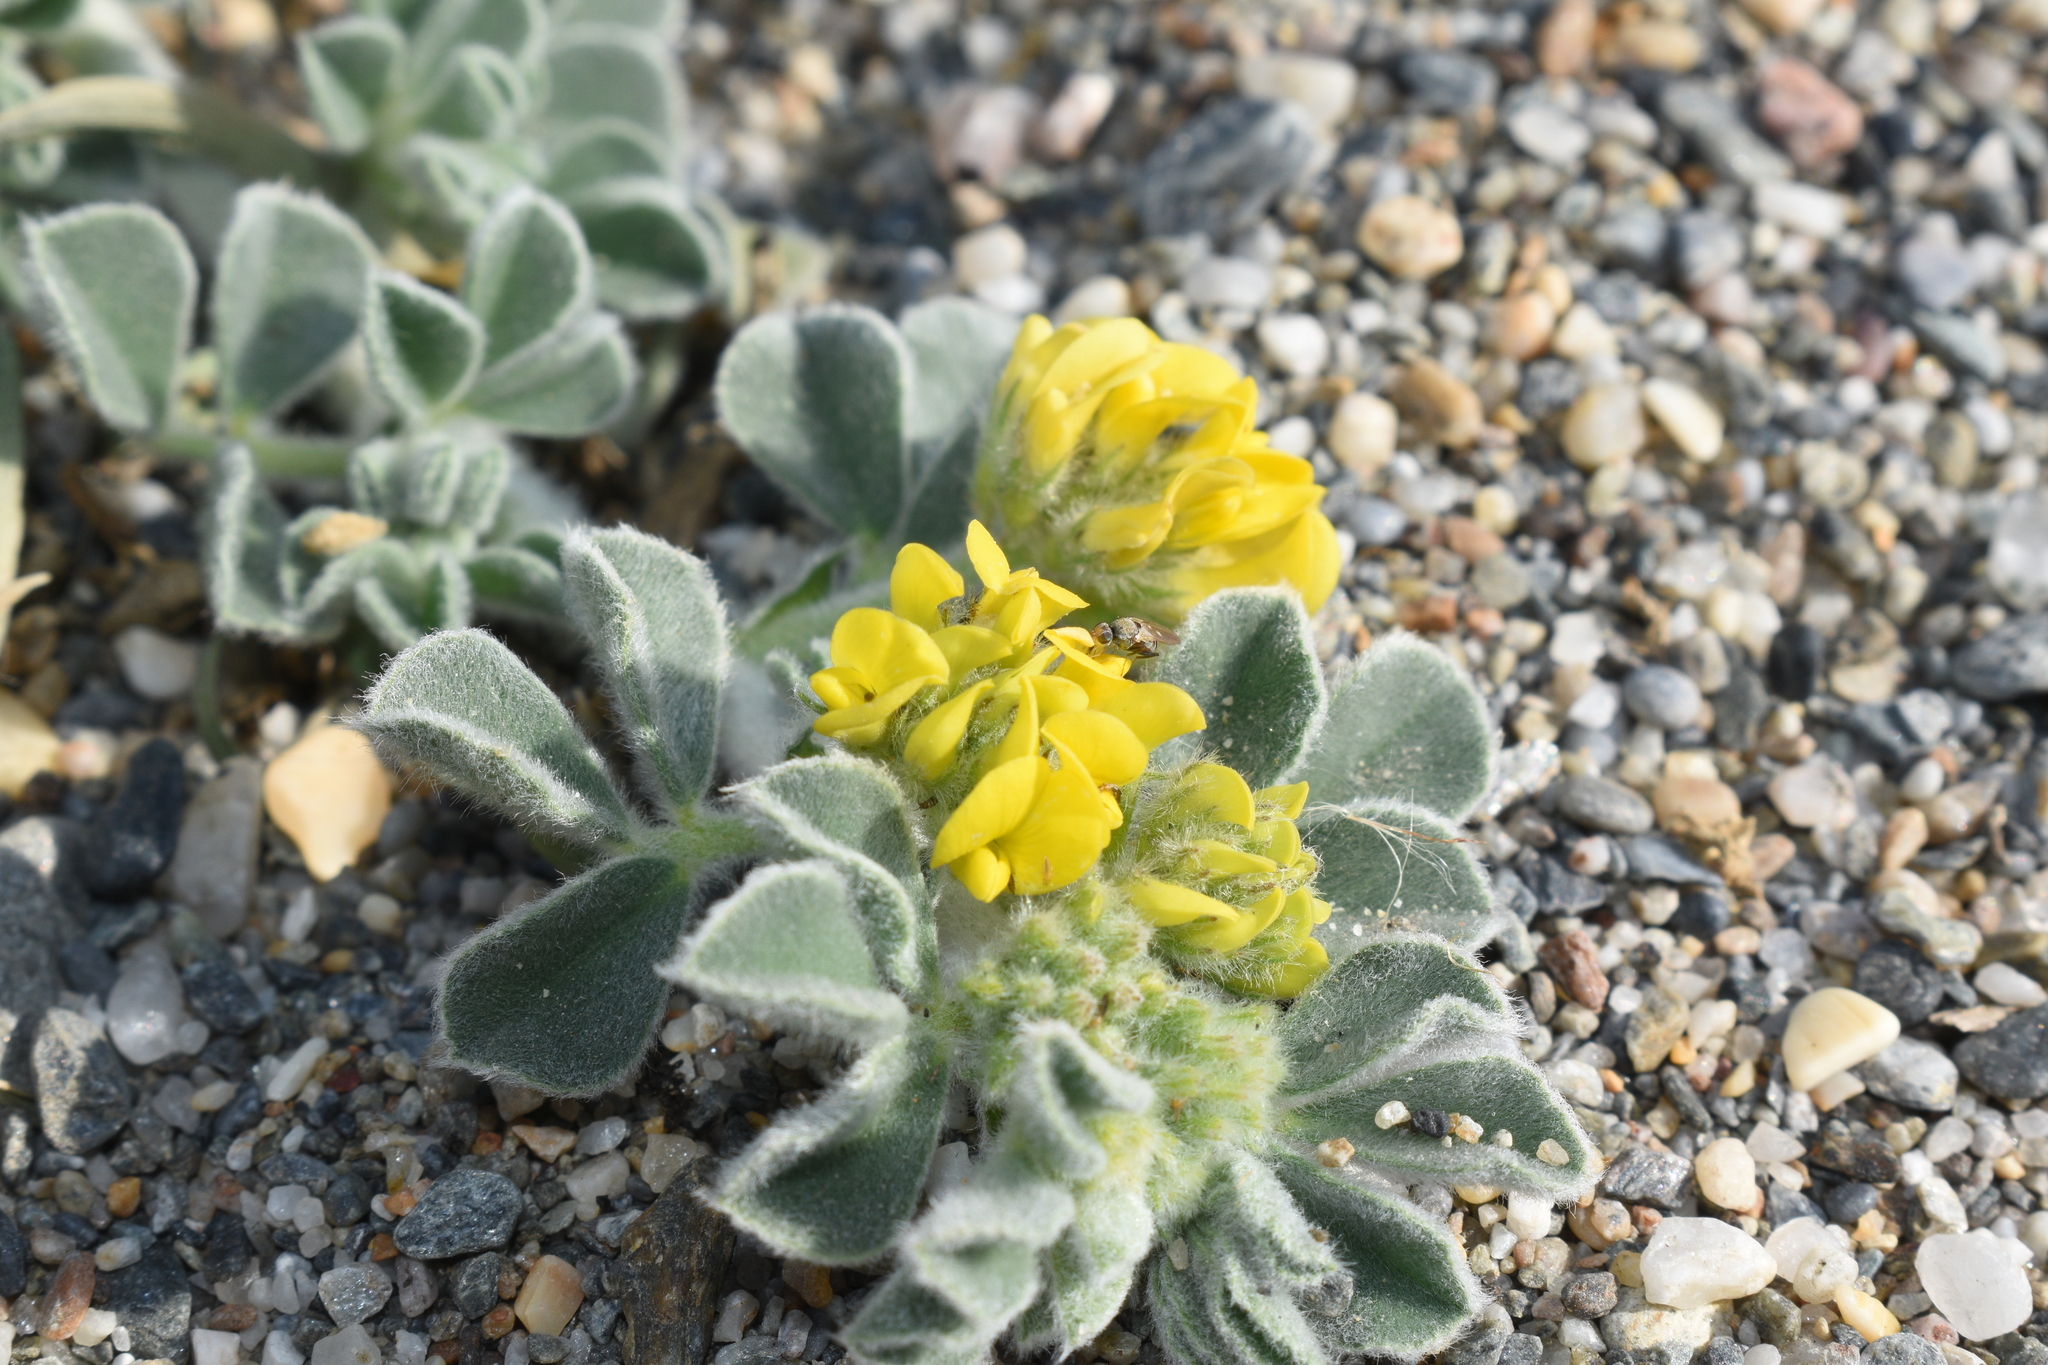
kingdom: Plantae
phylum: Tracheophyta
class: Magnoliopsida
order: Fabales
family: Fabaceae
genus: Medicago
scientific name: Medicago marina
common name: Sea medick
